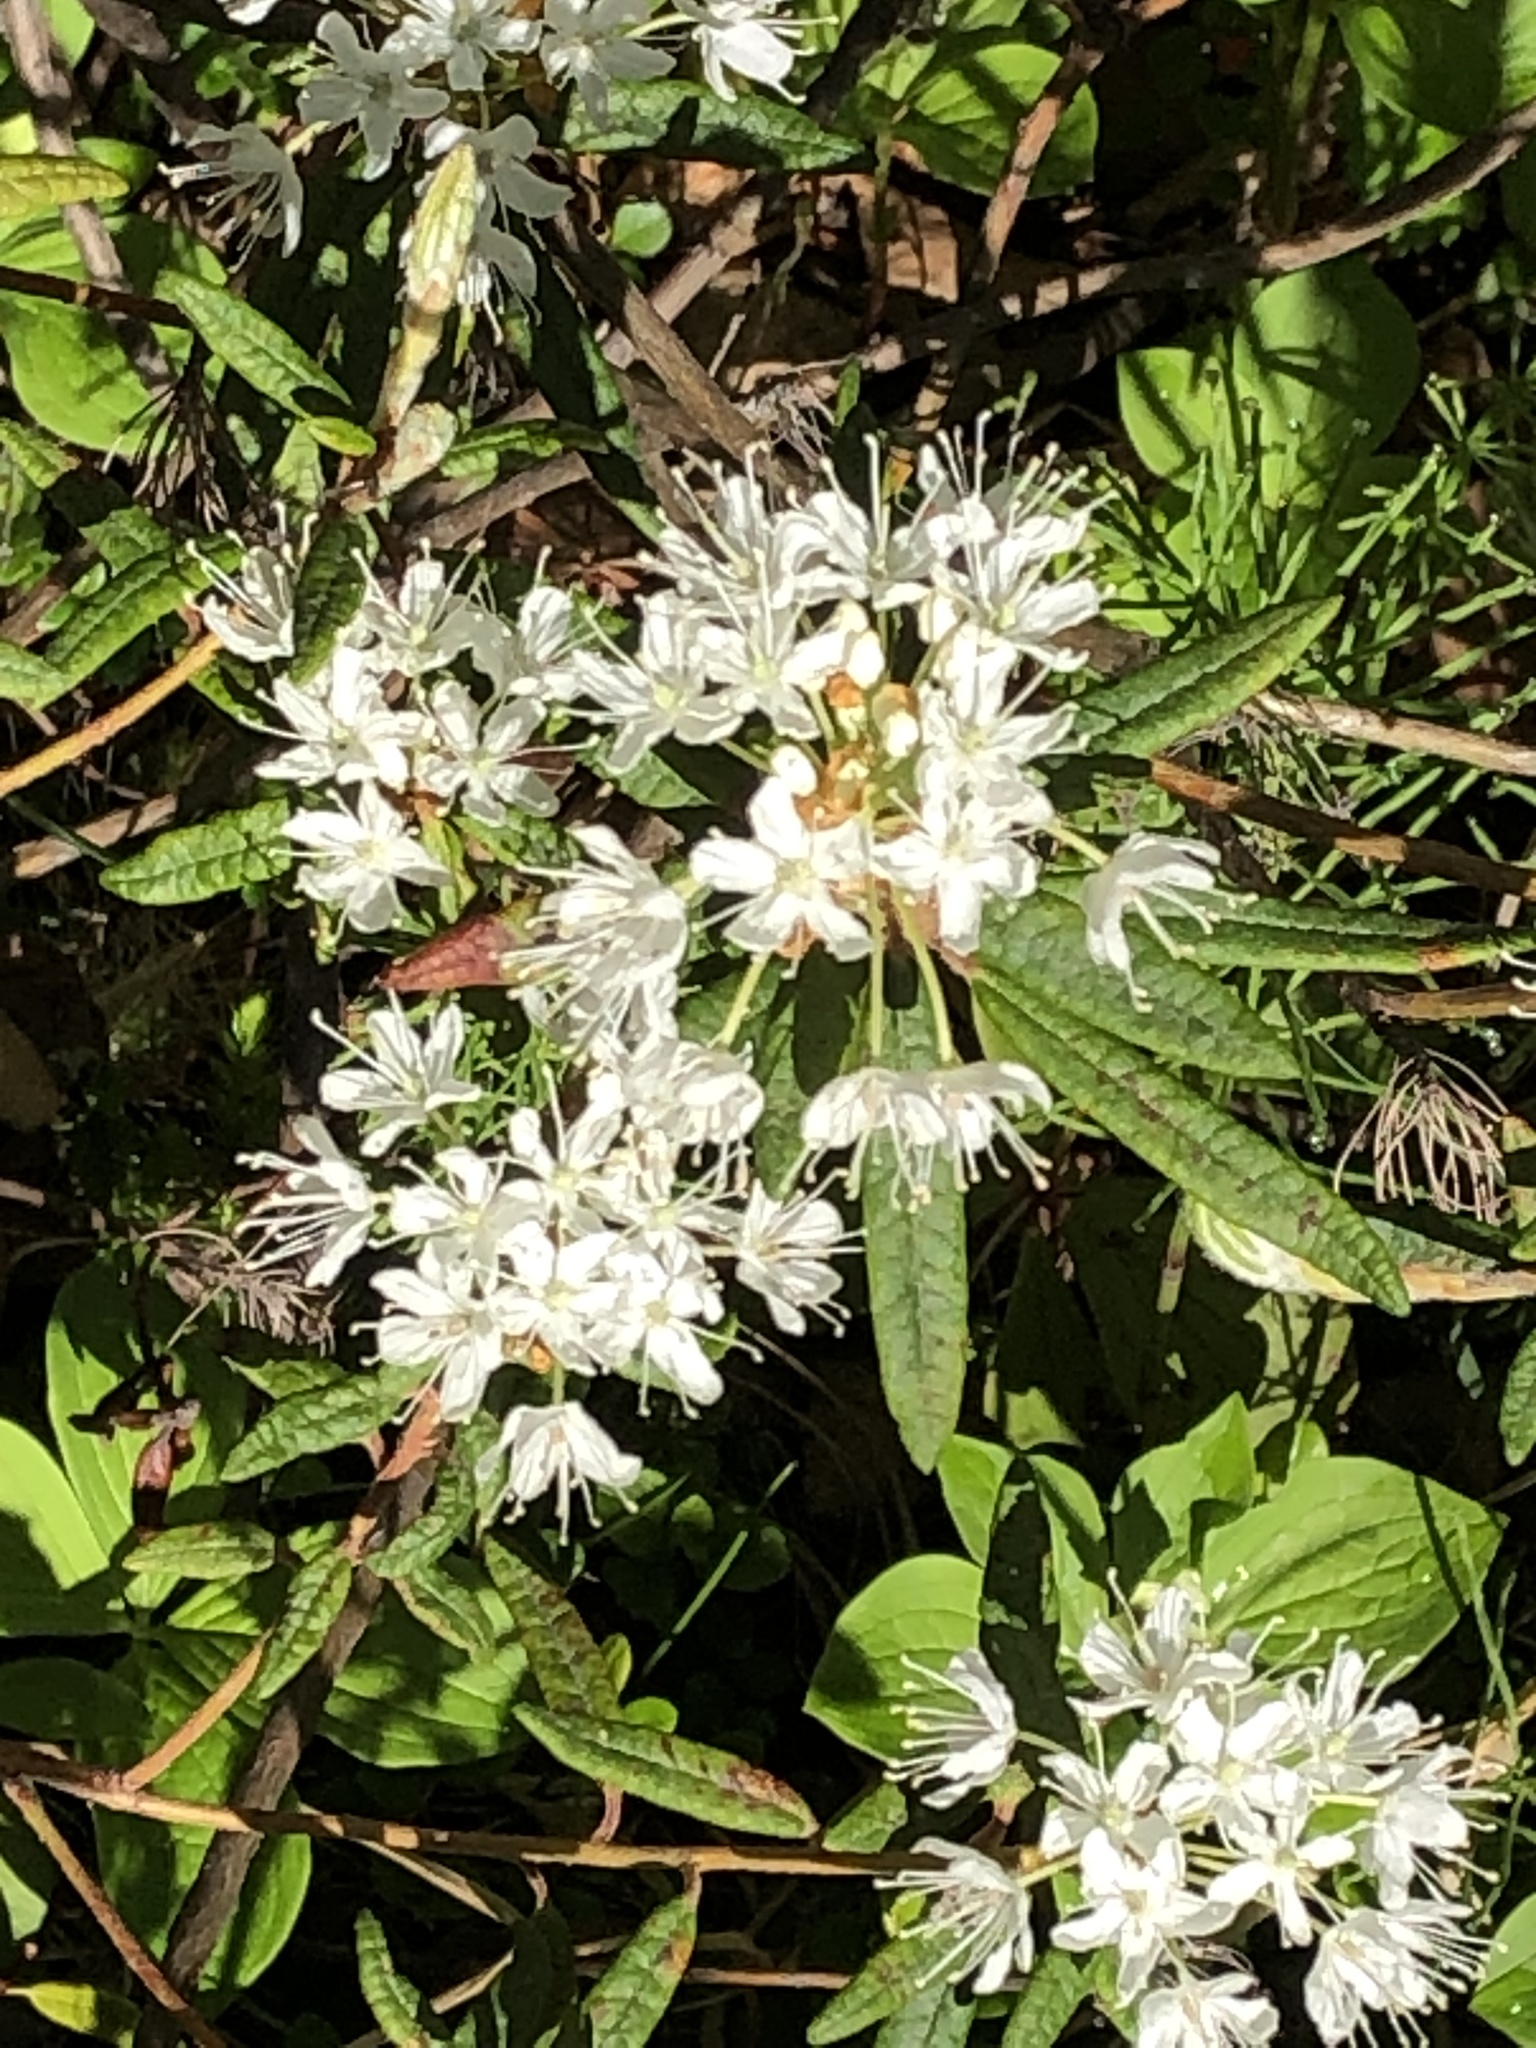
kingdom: Plantae
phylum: Tracheophyta
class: Magnoliopsida
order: Ericales
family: Ericaceae
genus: Rhododendron
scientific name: Rhododendron groenlandicum
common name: Bog labrador tea
